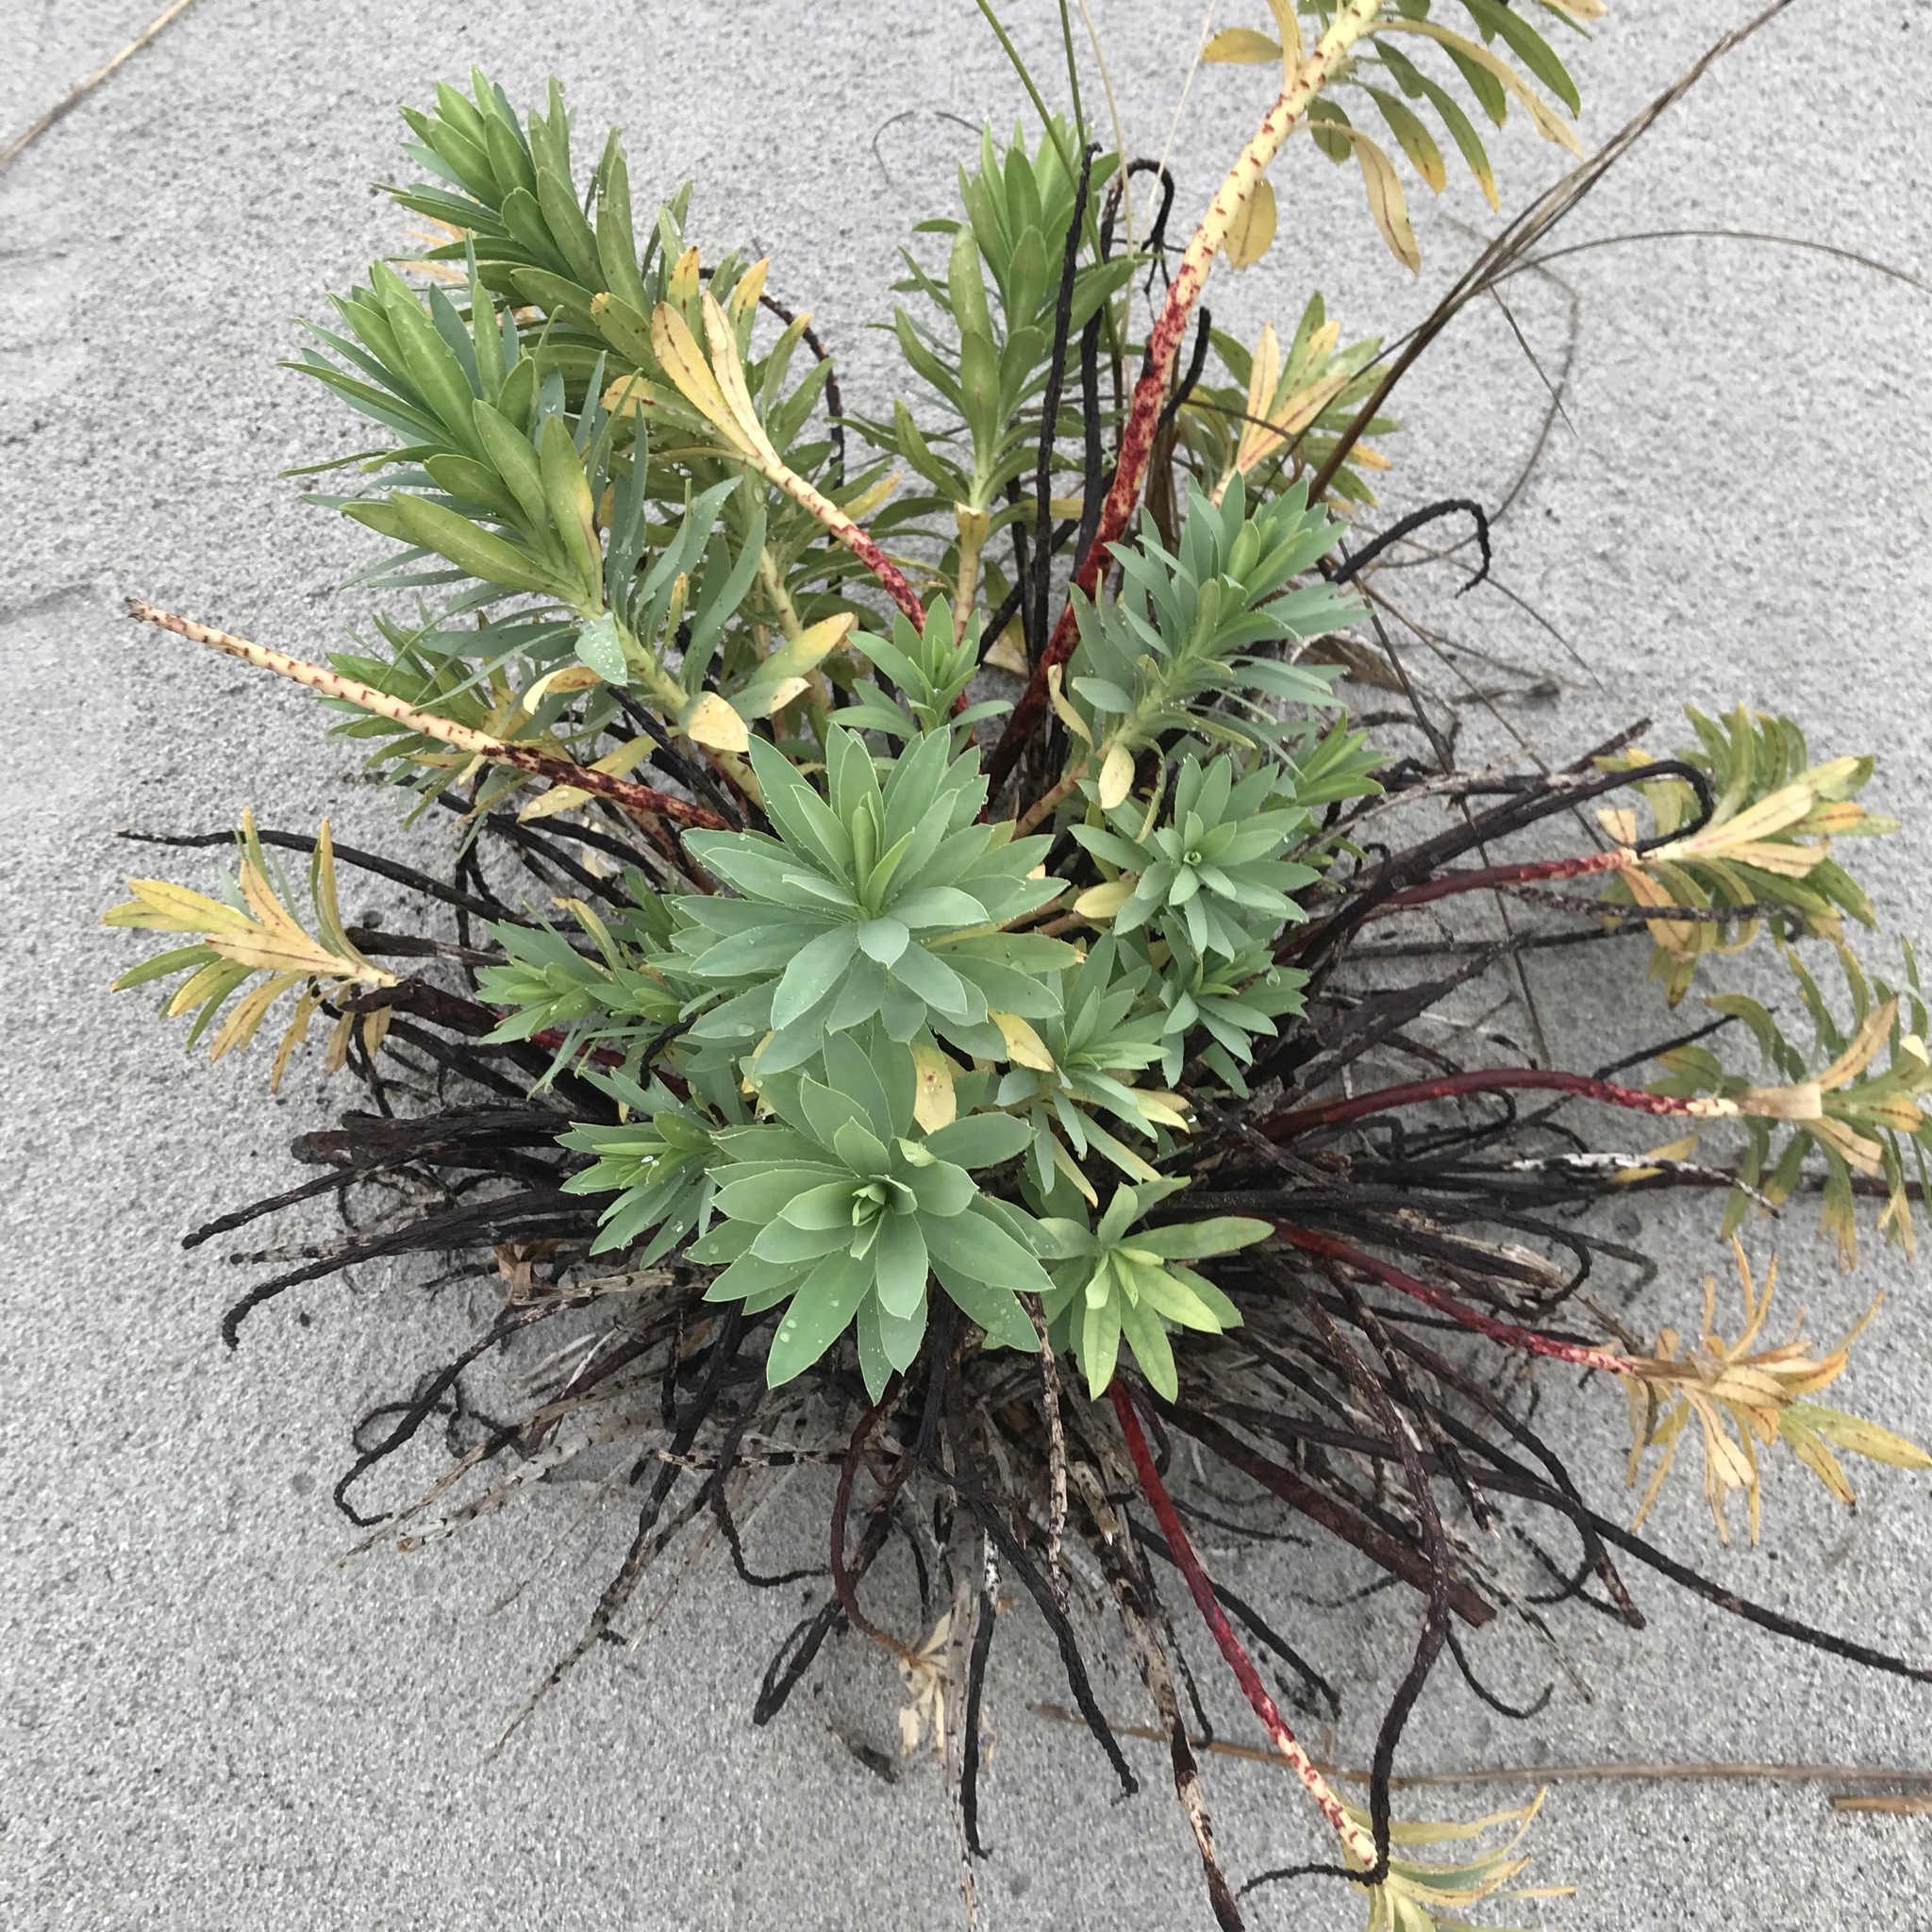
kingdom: Plantae
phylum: Tracheophyta
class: Magnoliopsida
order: Malpighiales
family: Euphorbiaceae
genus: Euphorbia
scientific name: Euphorbia glauca
